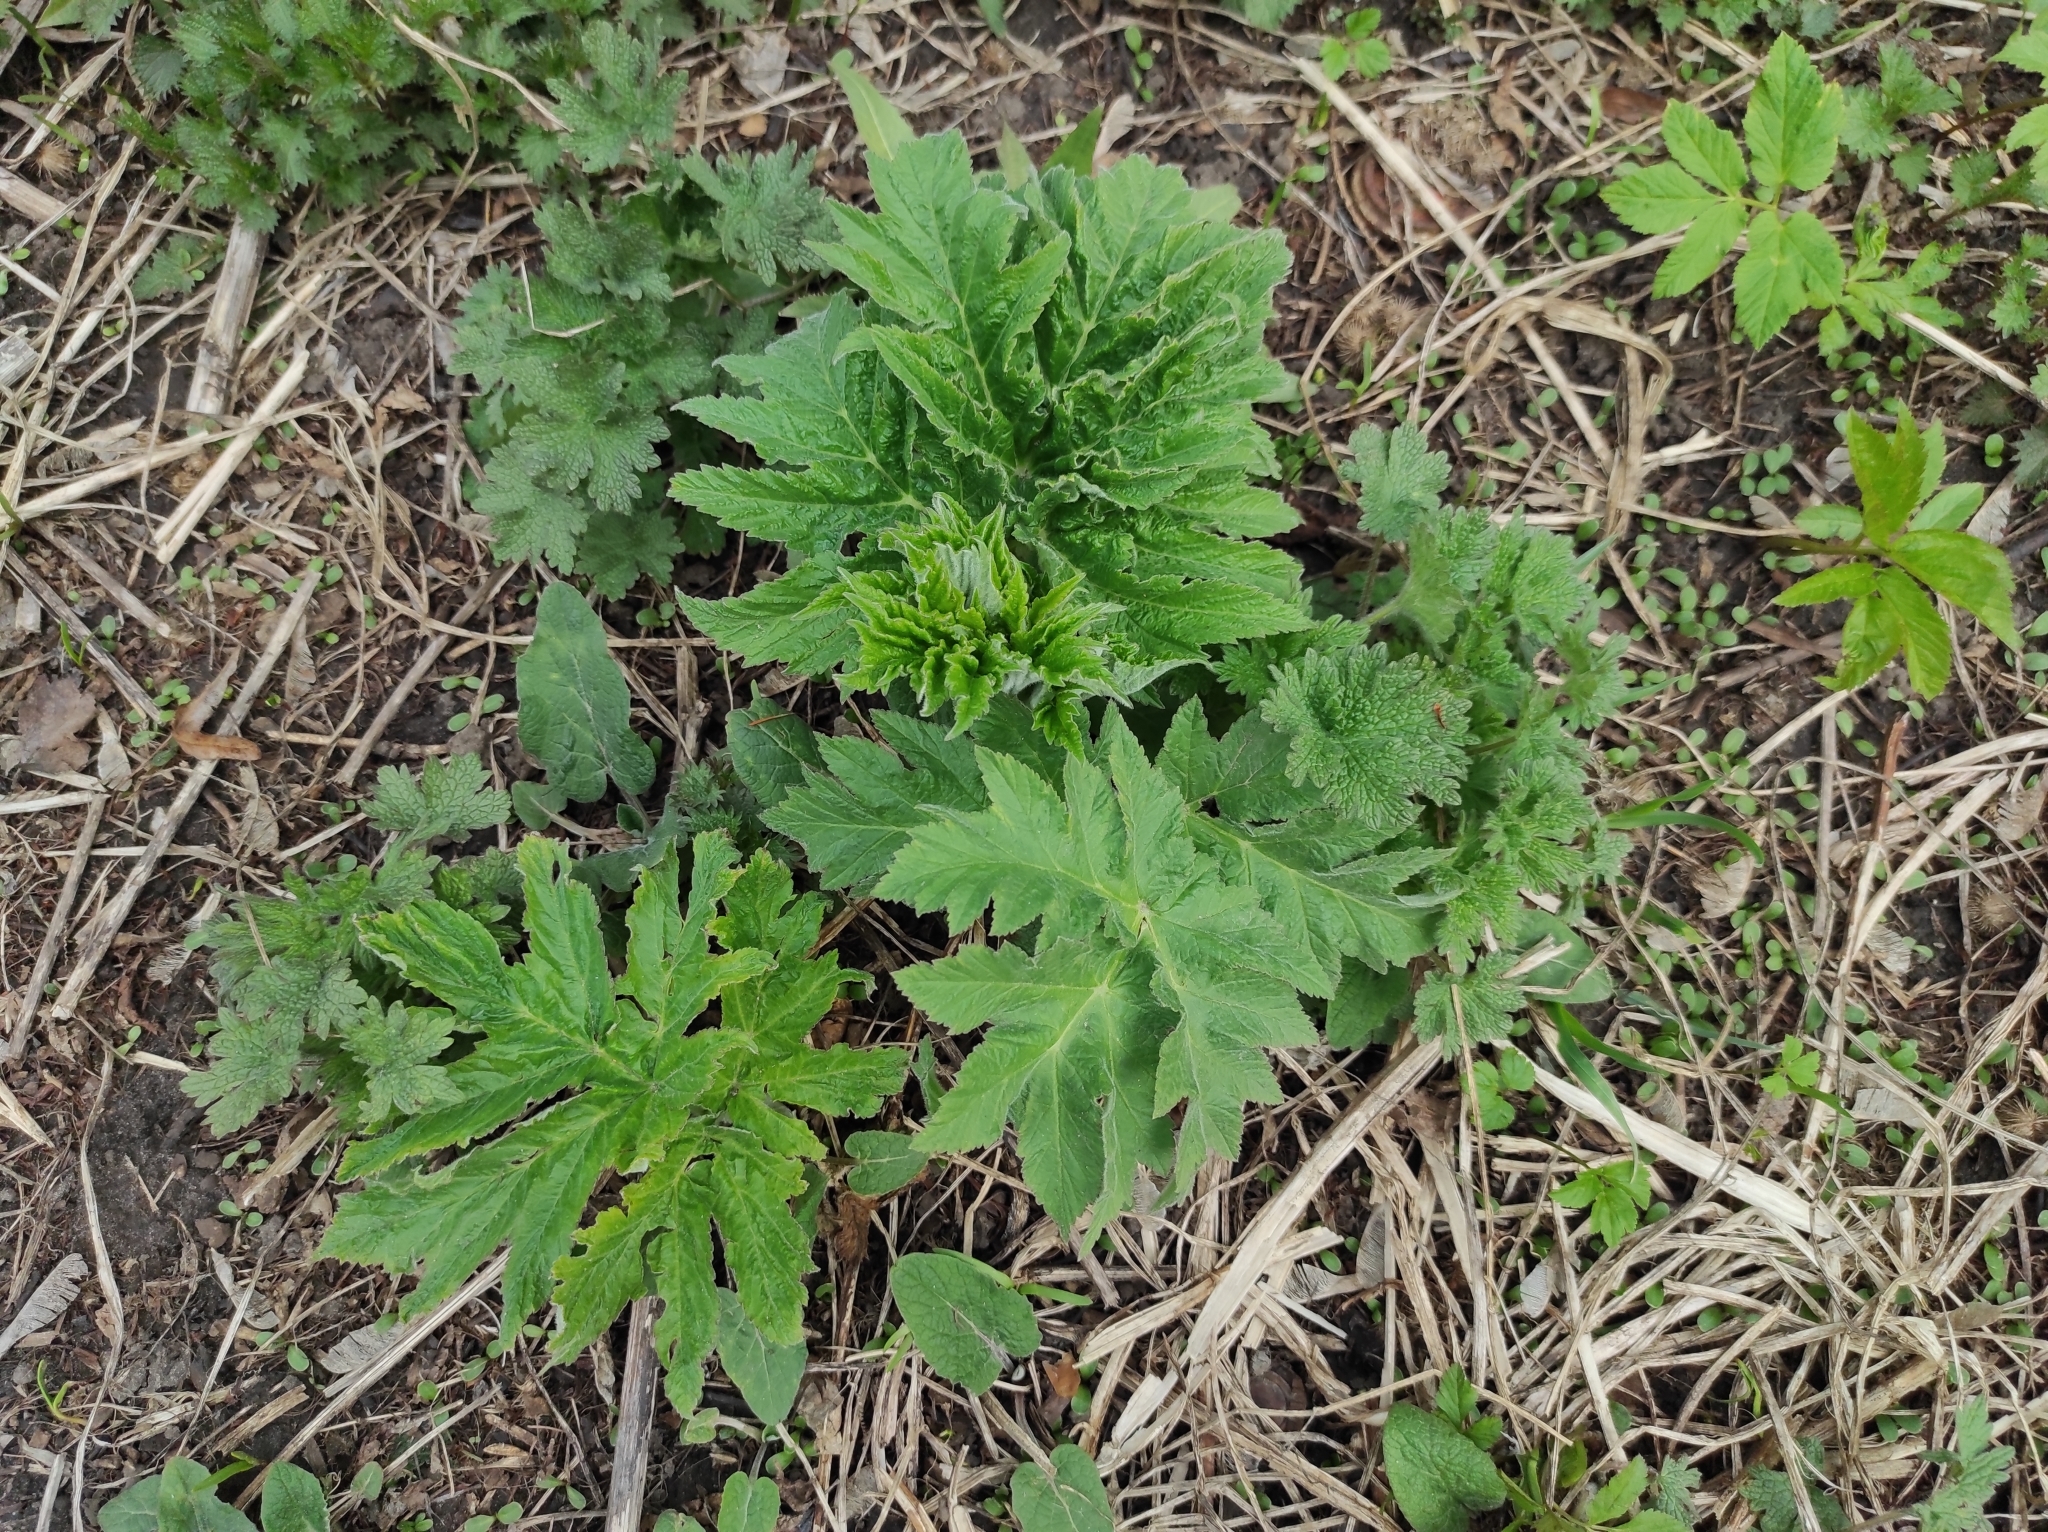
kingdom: Plantae
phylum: Tracheophyta
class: Magnoliopsida
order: Apiales
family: Apiaceae
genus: Heracleum
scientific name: Heracleum dissectum
